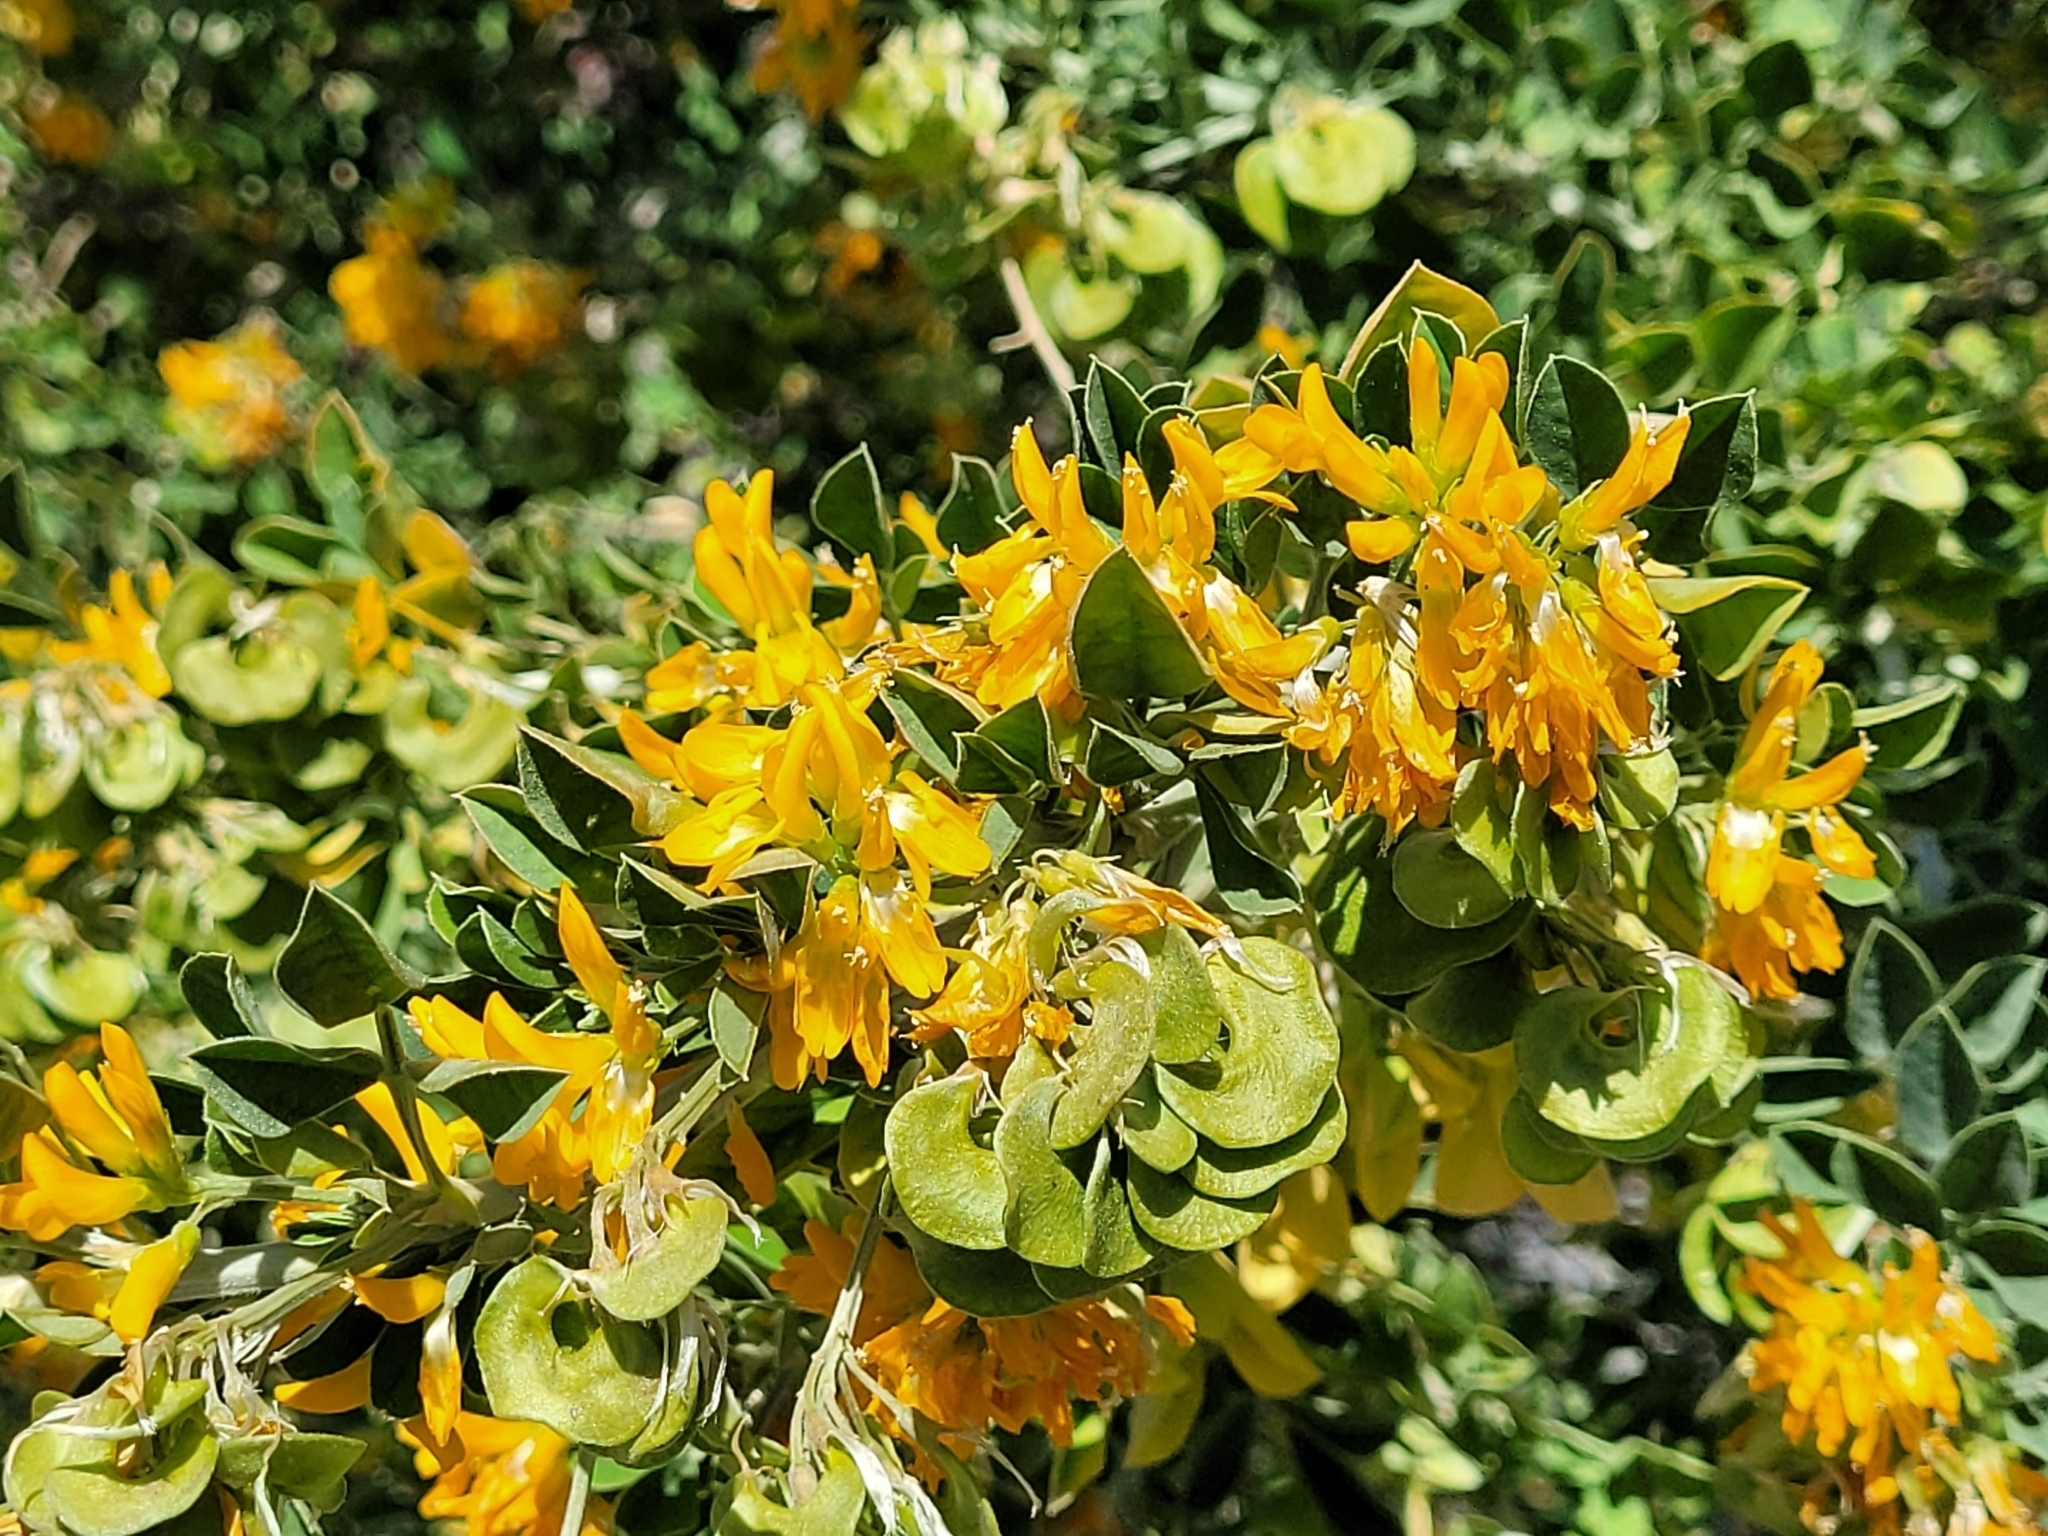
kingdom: Plantae
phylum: Tracheophyta
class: Magnoliopsida
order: Fabales
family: Fabaceae
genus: Medicago
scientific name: Medicago arborea
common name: Moon trefoil
